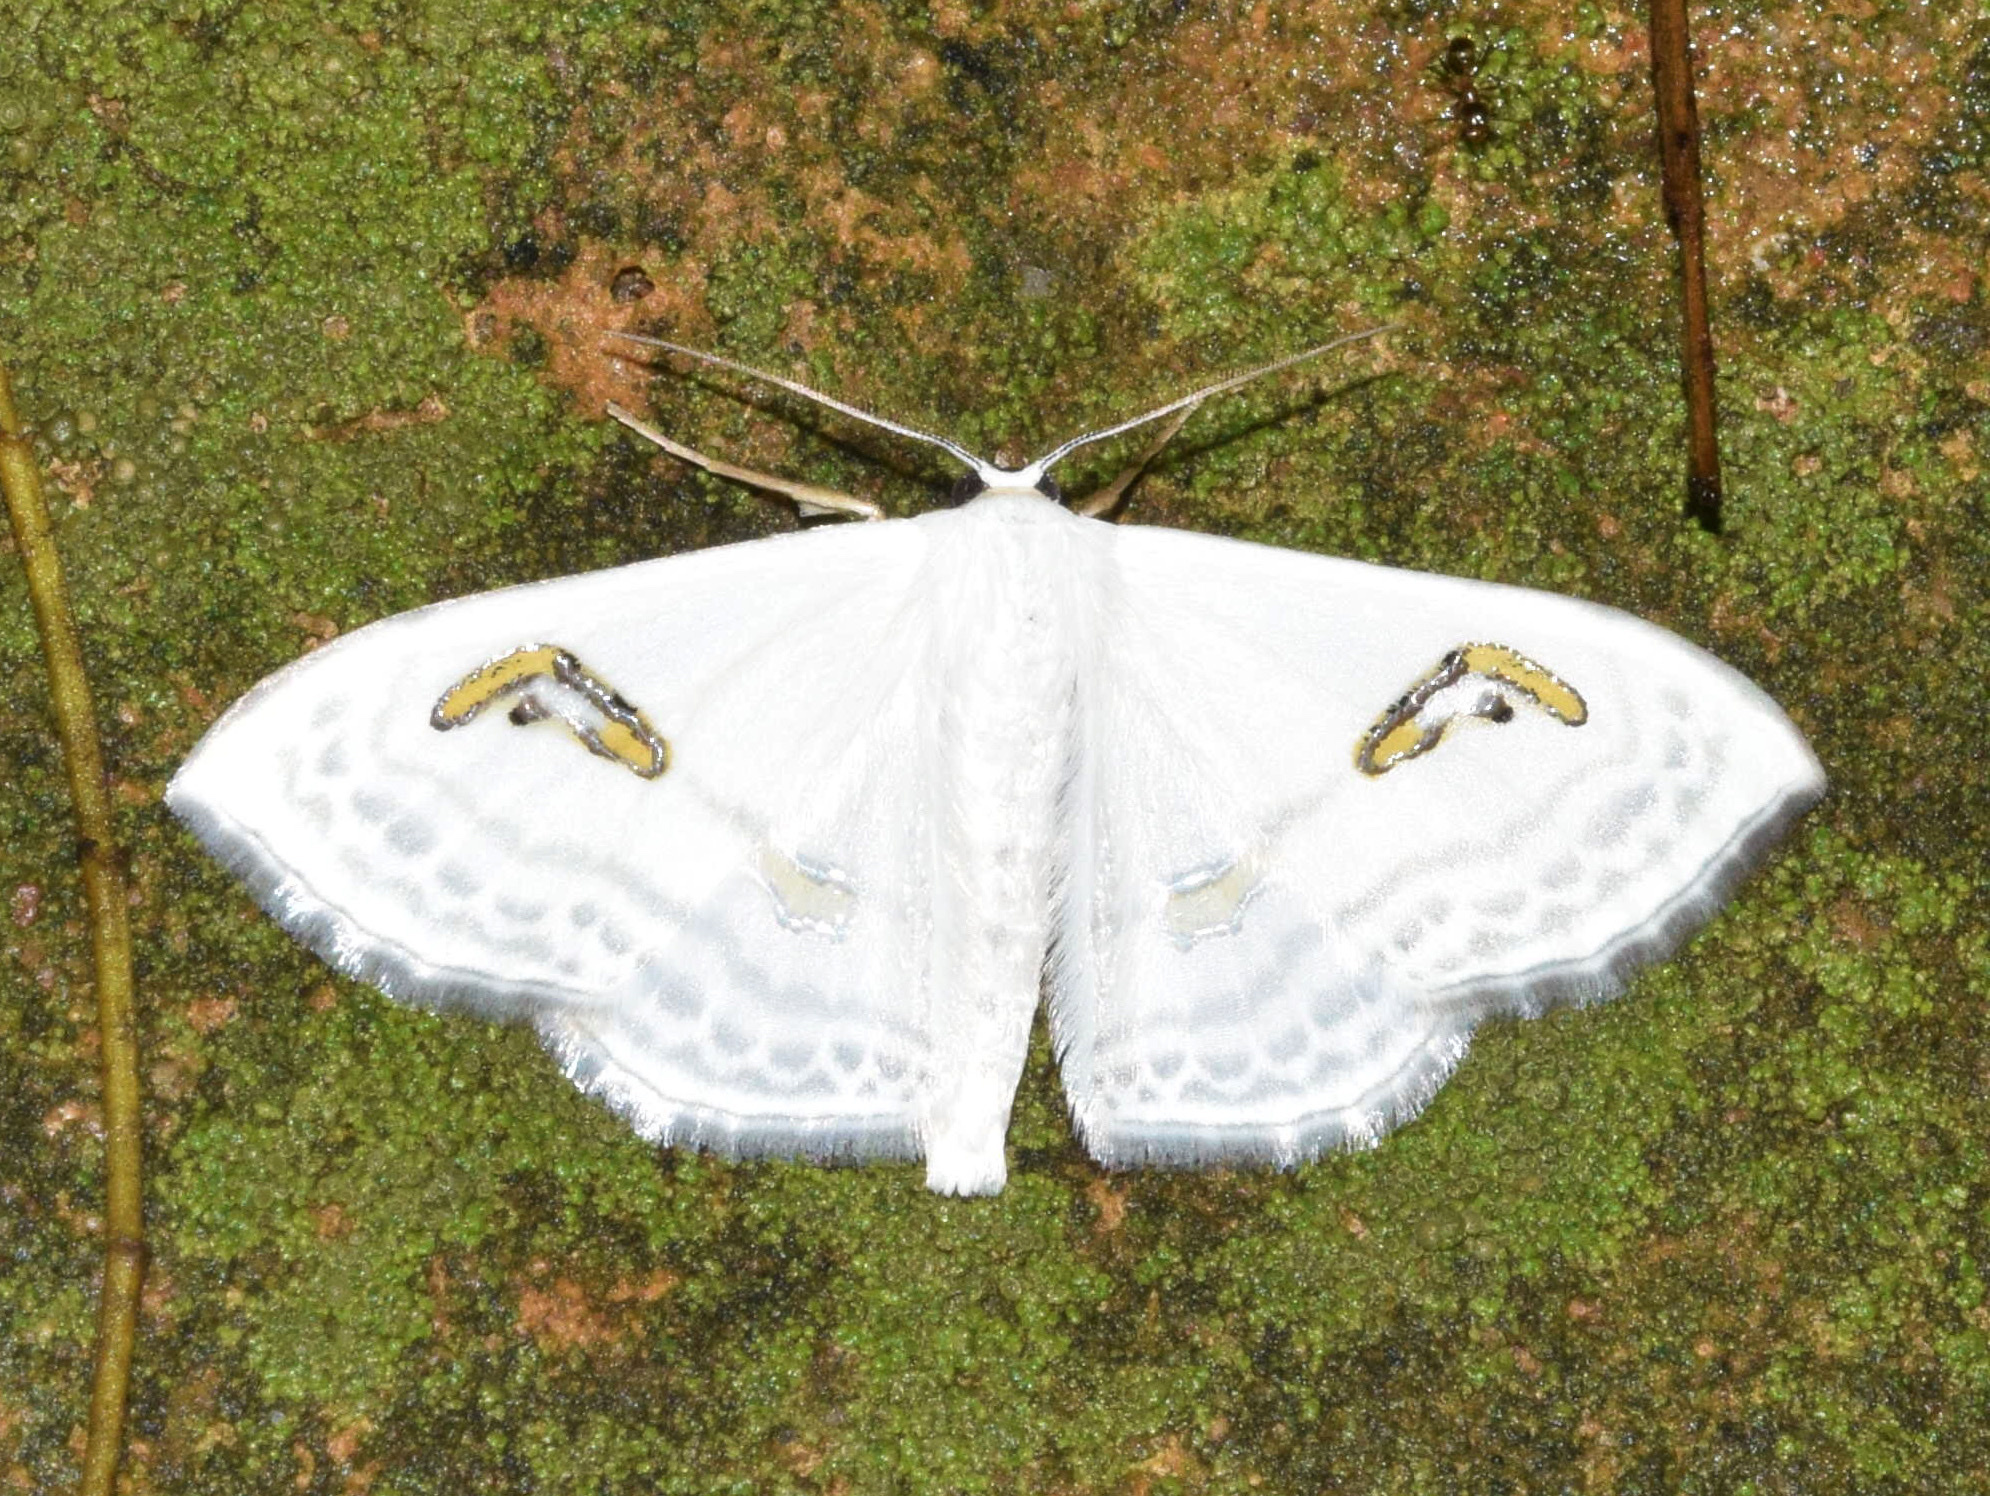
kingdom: Animalia
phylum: Arthropoda
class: Insecta
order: Lepidoptera
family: Geometridae
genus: Problepsis
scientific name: Problepsis digammata
